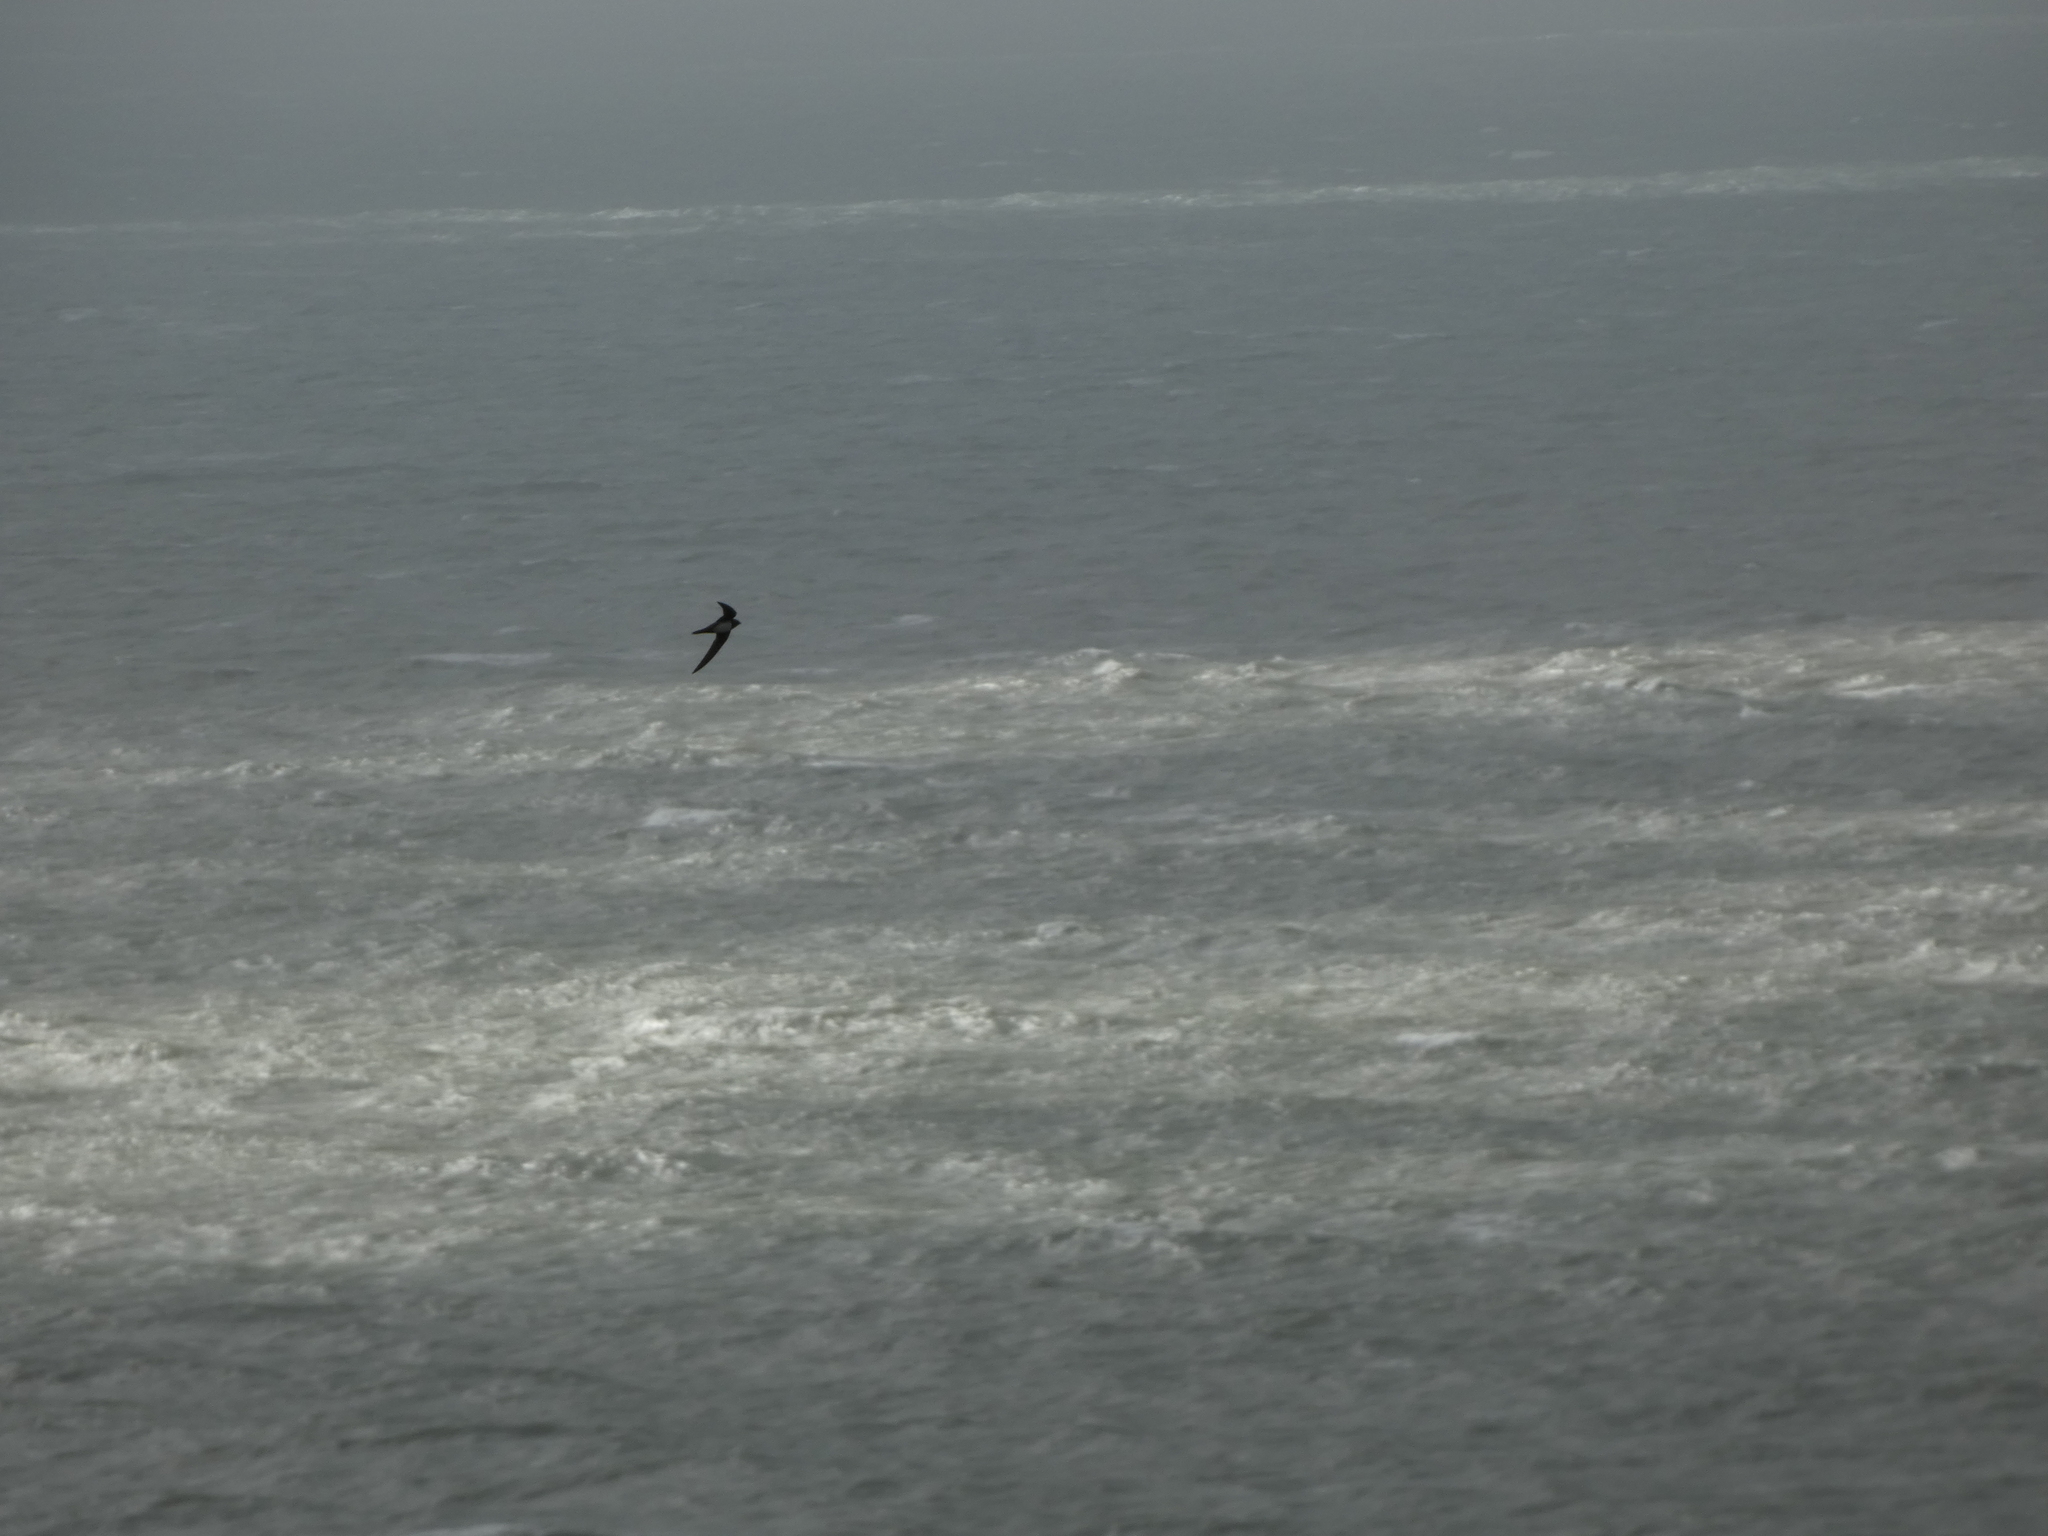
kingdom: Animalia
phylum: Chordata
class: Aves
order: Apodiformes
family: Apodidae
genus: Tachymarptis
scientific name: Tachymarptis melba
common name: Alpine swift
